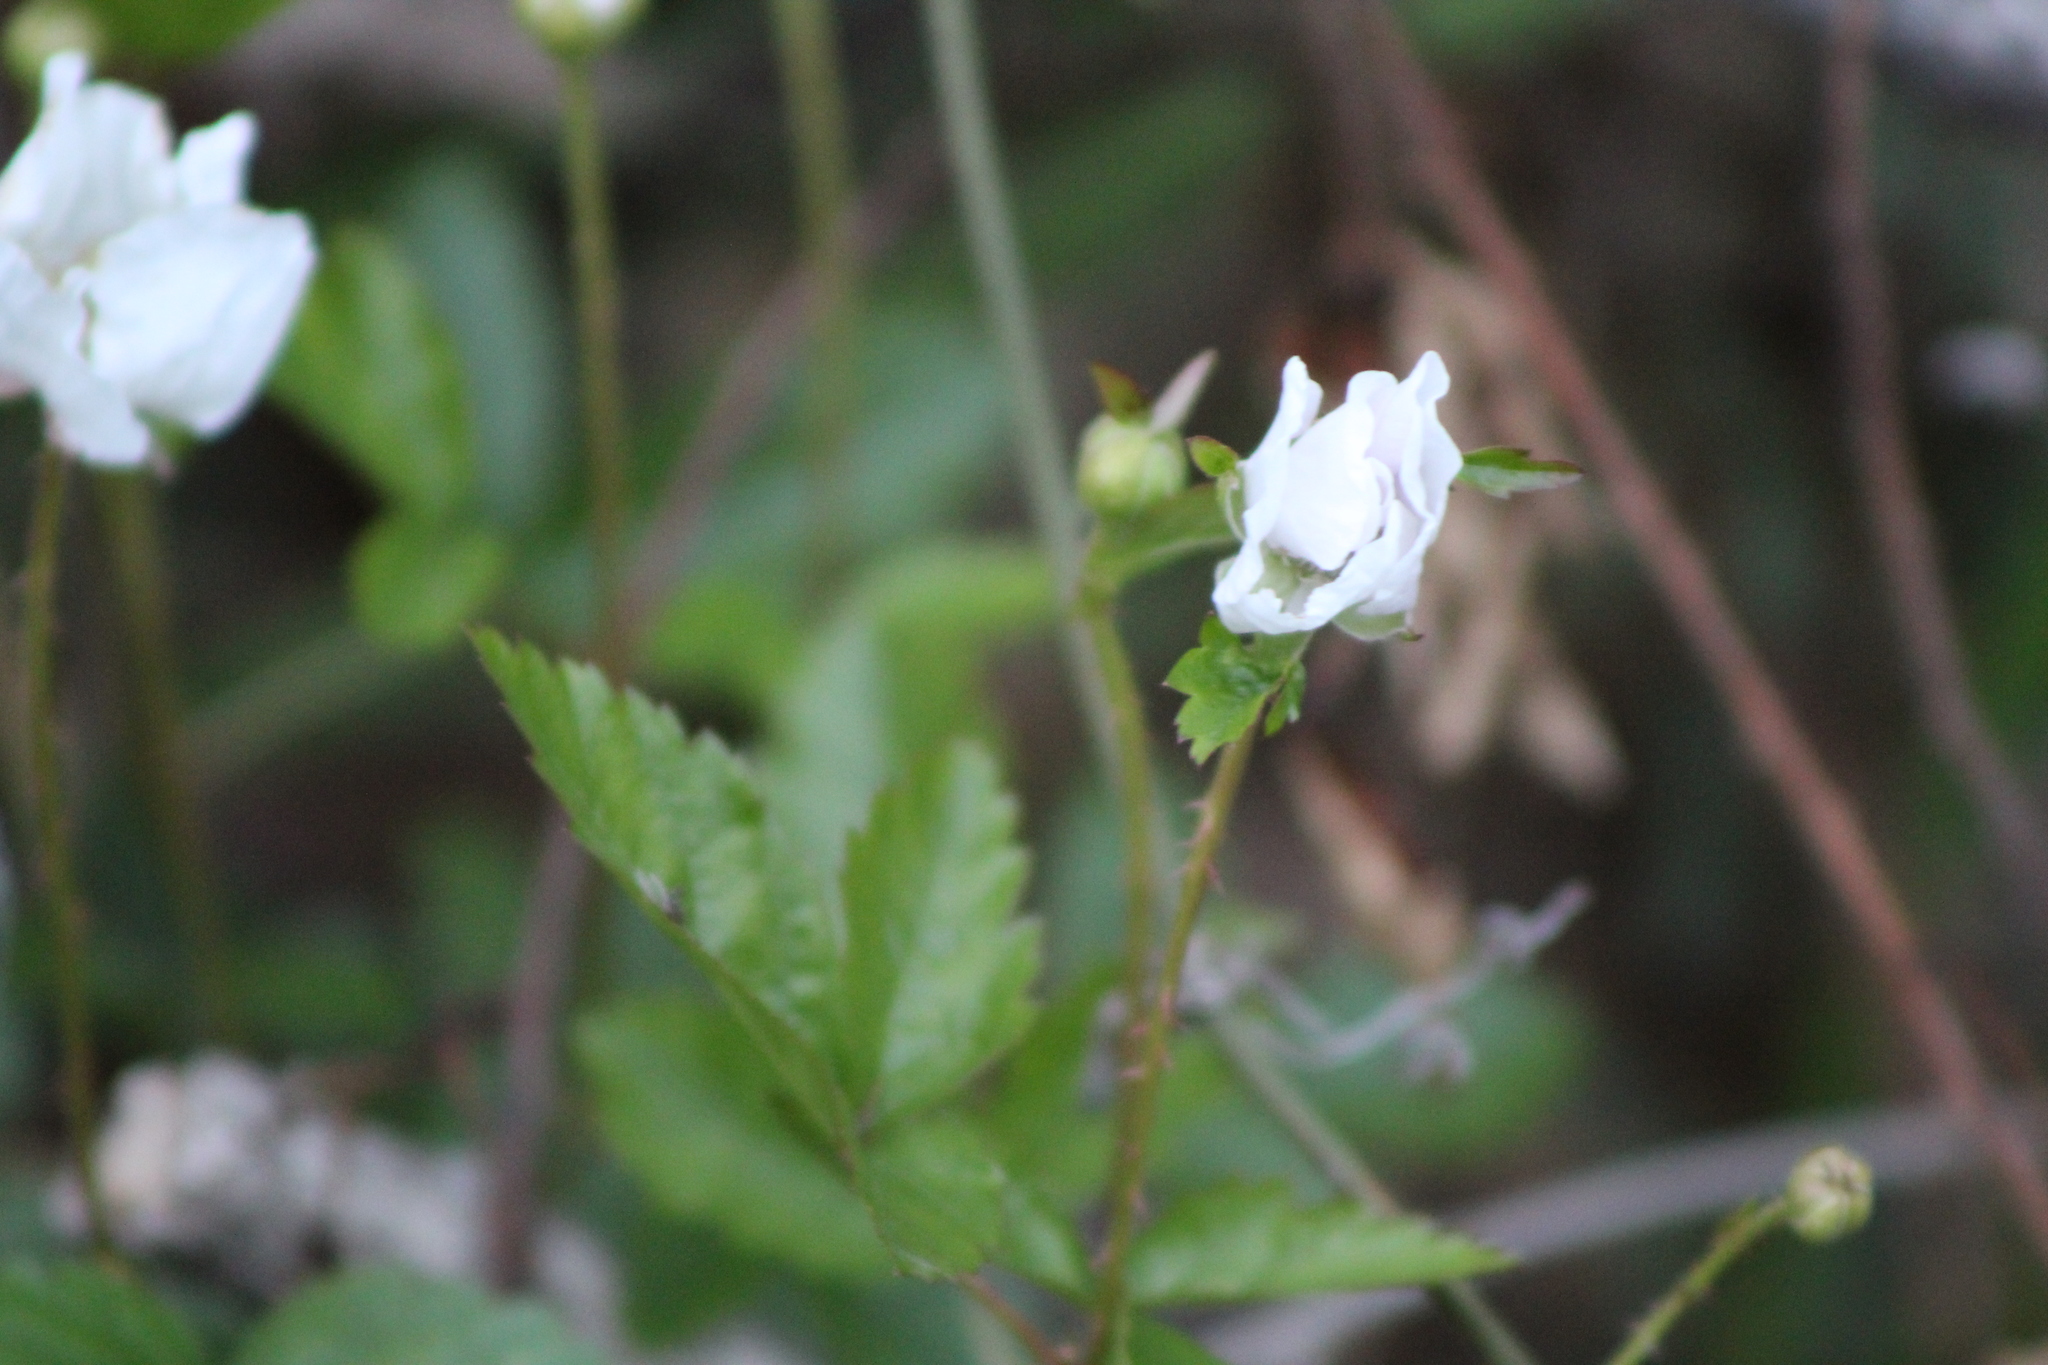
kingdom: Plantae
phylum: Tracheophyta
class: Magnoliopsida
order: Rosales
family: Rosaceae
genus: Rubus
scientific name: Rubus trivialis
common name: Southern dewberry
